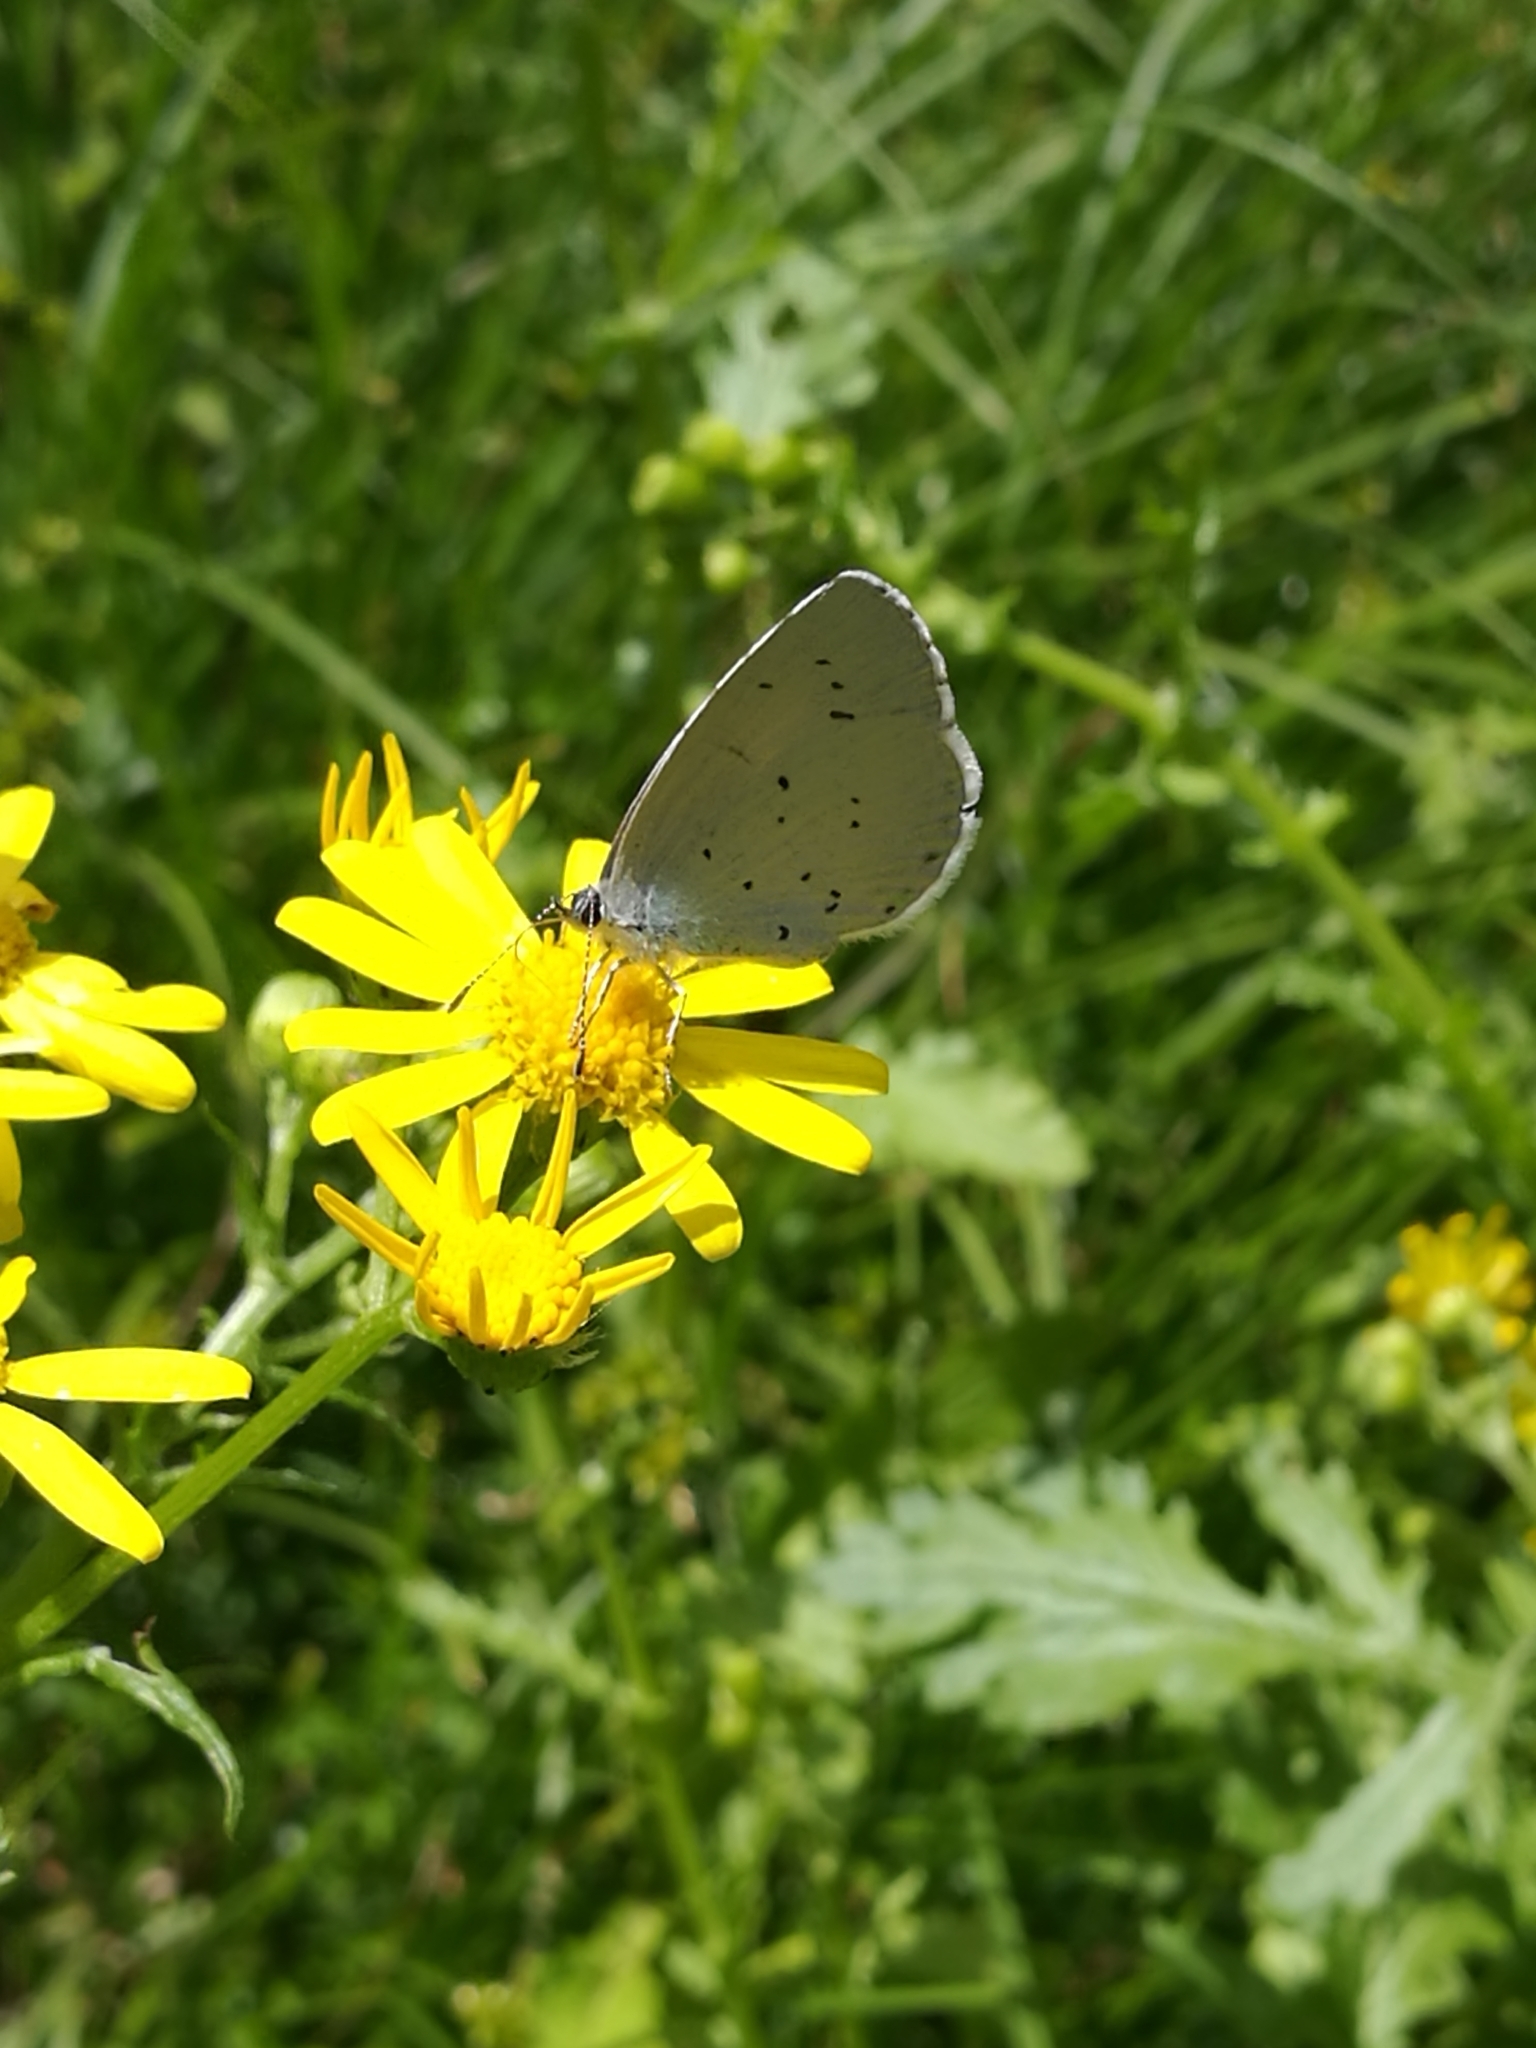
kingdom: Animalia
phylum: Arthropoda
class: Insecta
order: Lepidoptera
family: Lycaenidae
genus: Celastrina
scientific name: Celastrina argiolus
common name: Holly blue
